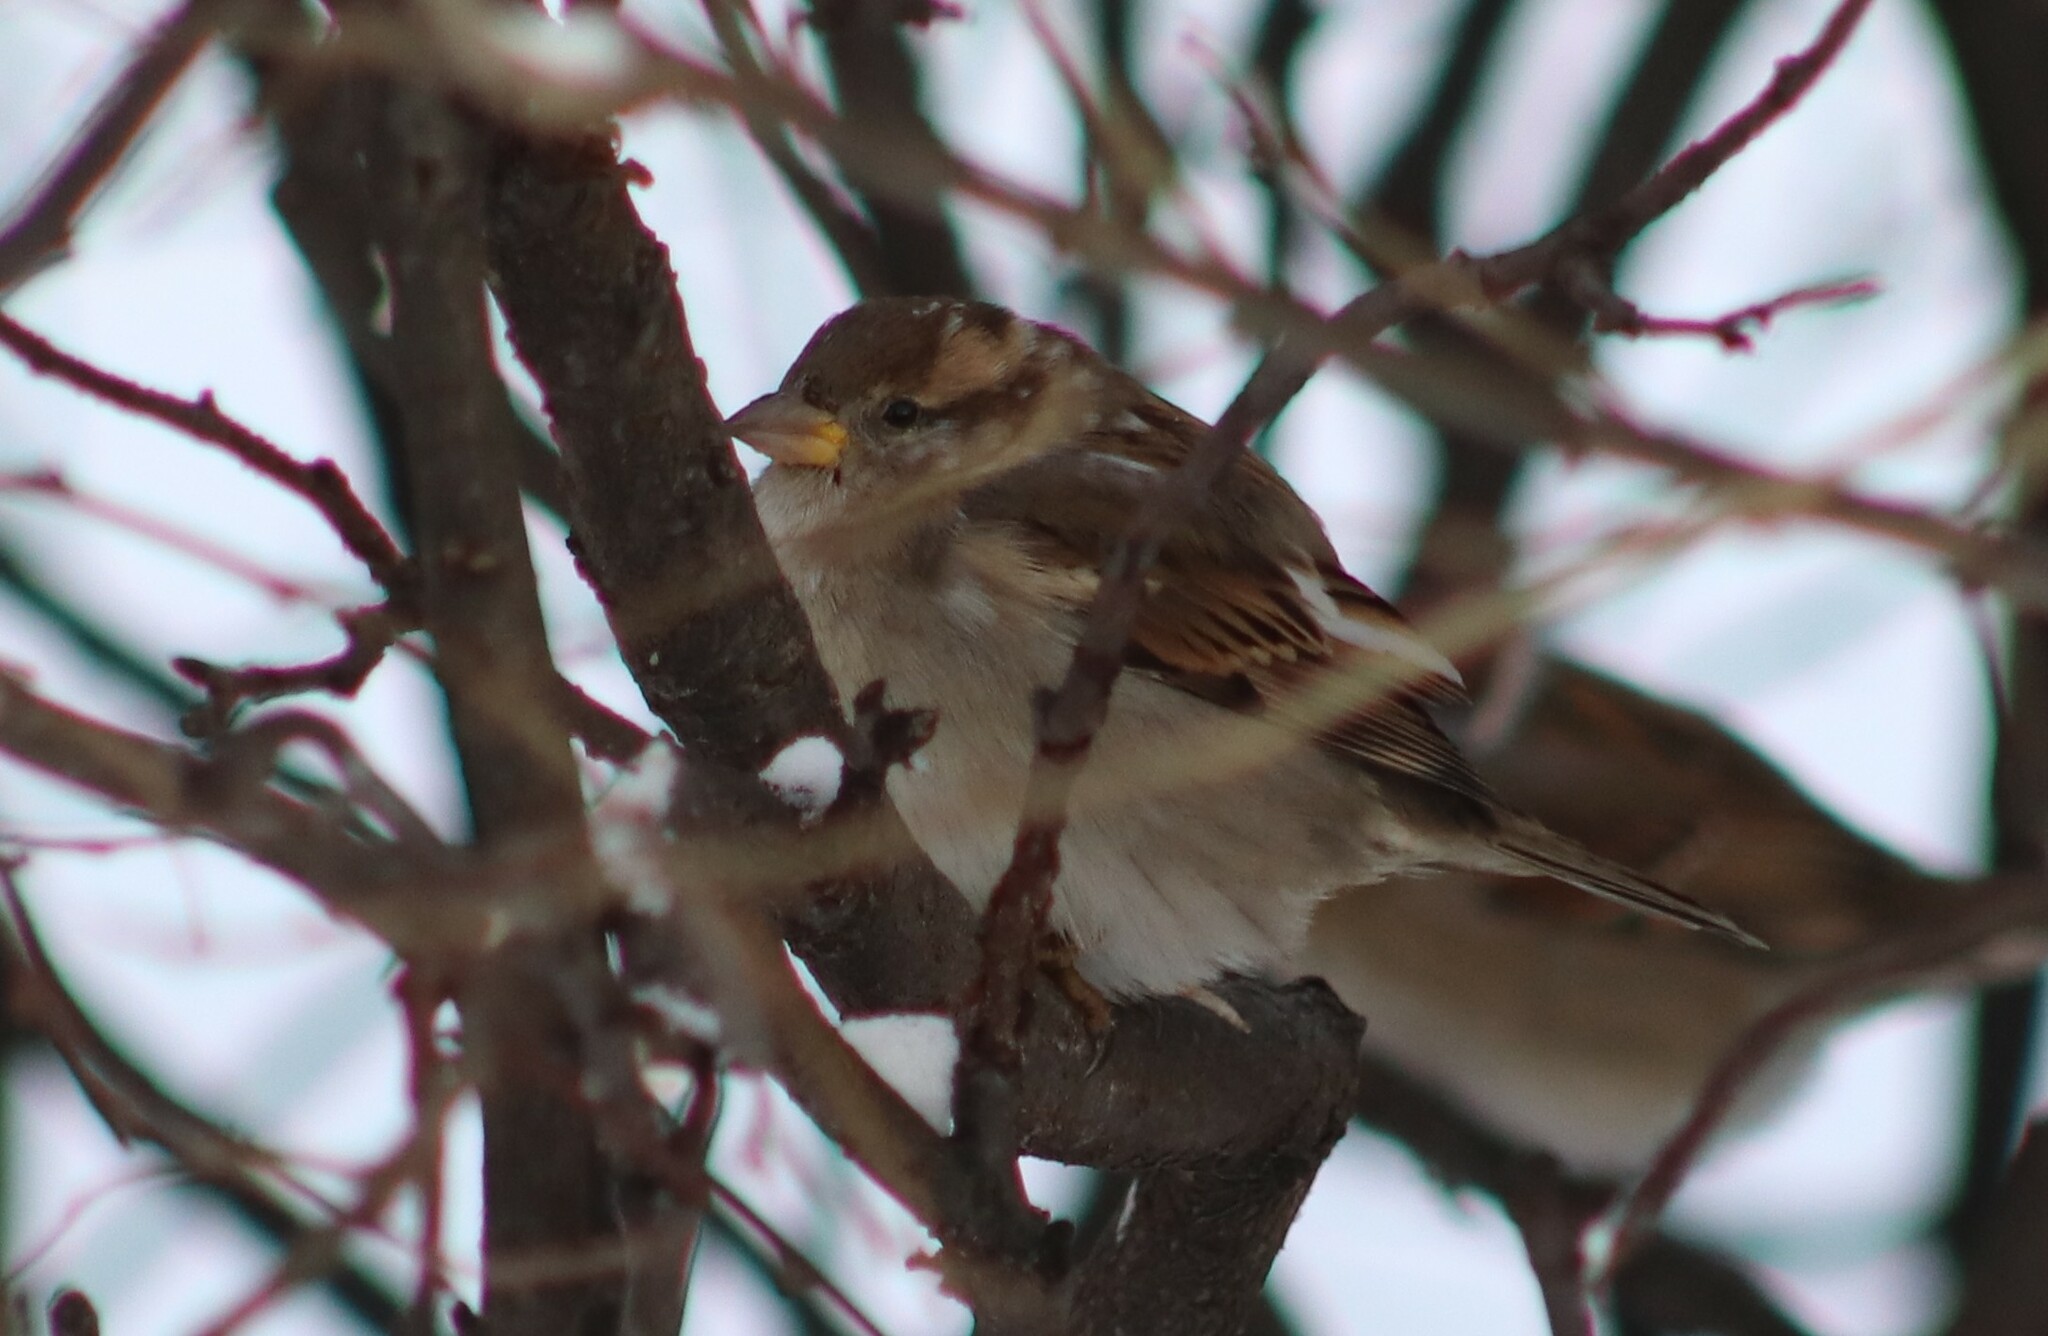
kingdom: Animalia
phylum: Chordata
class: Aves
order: Passeriformes
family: Passeridae
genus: Passer
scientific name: Passer domesticus
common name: House sparrow
